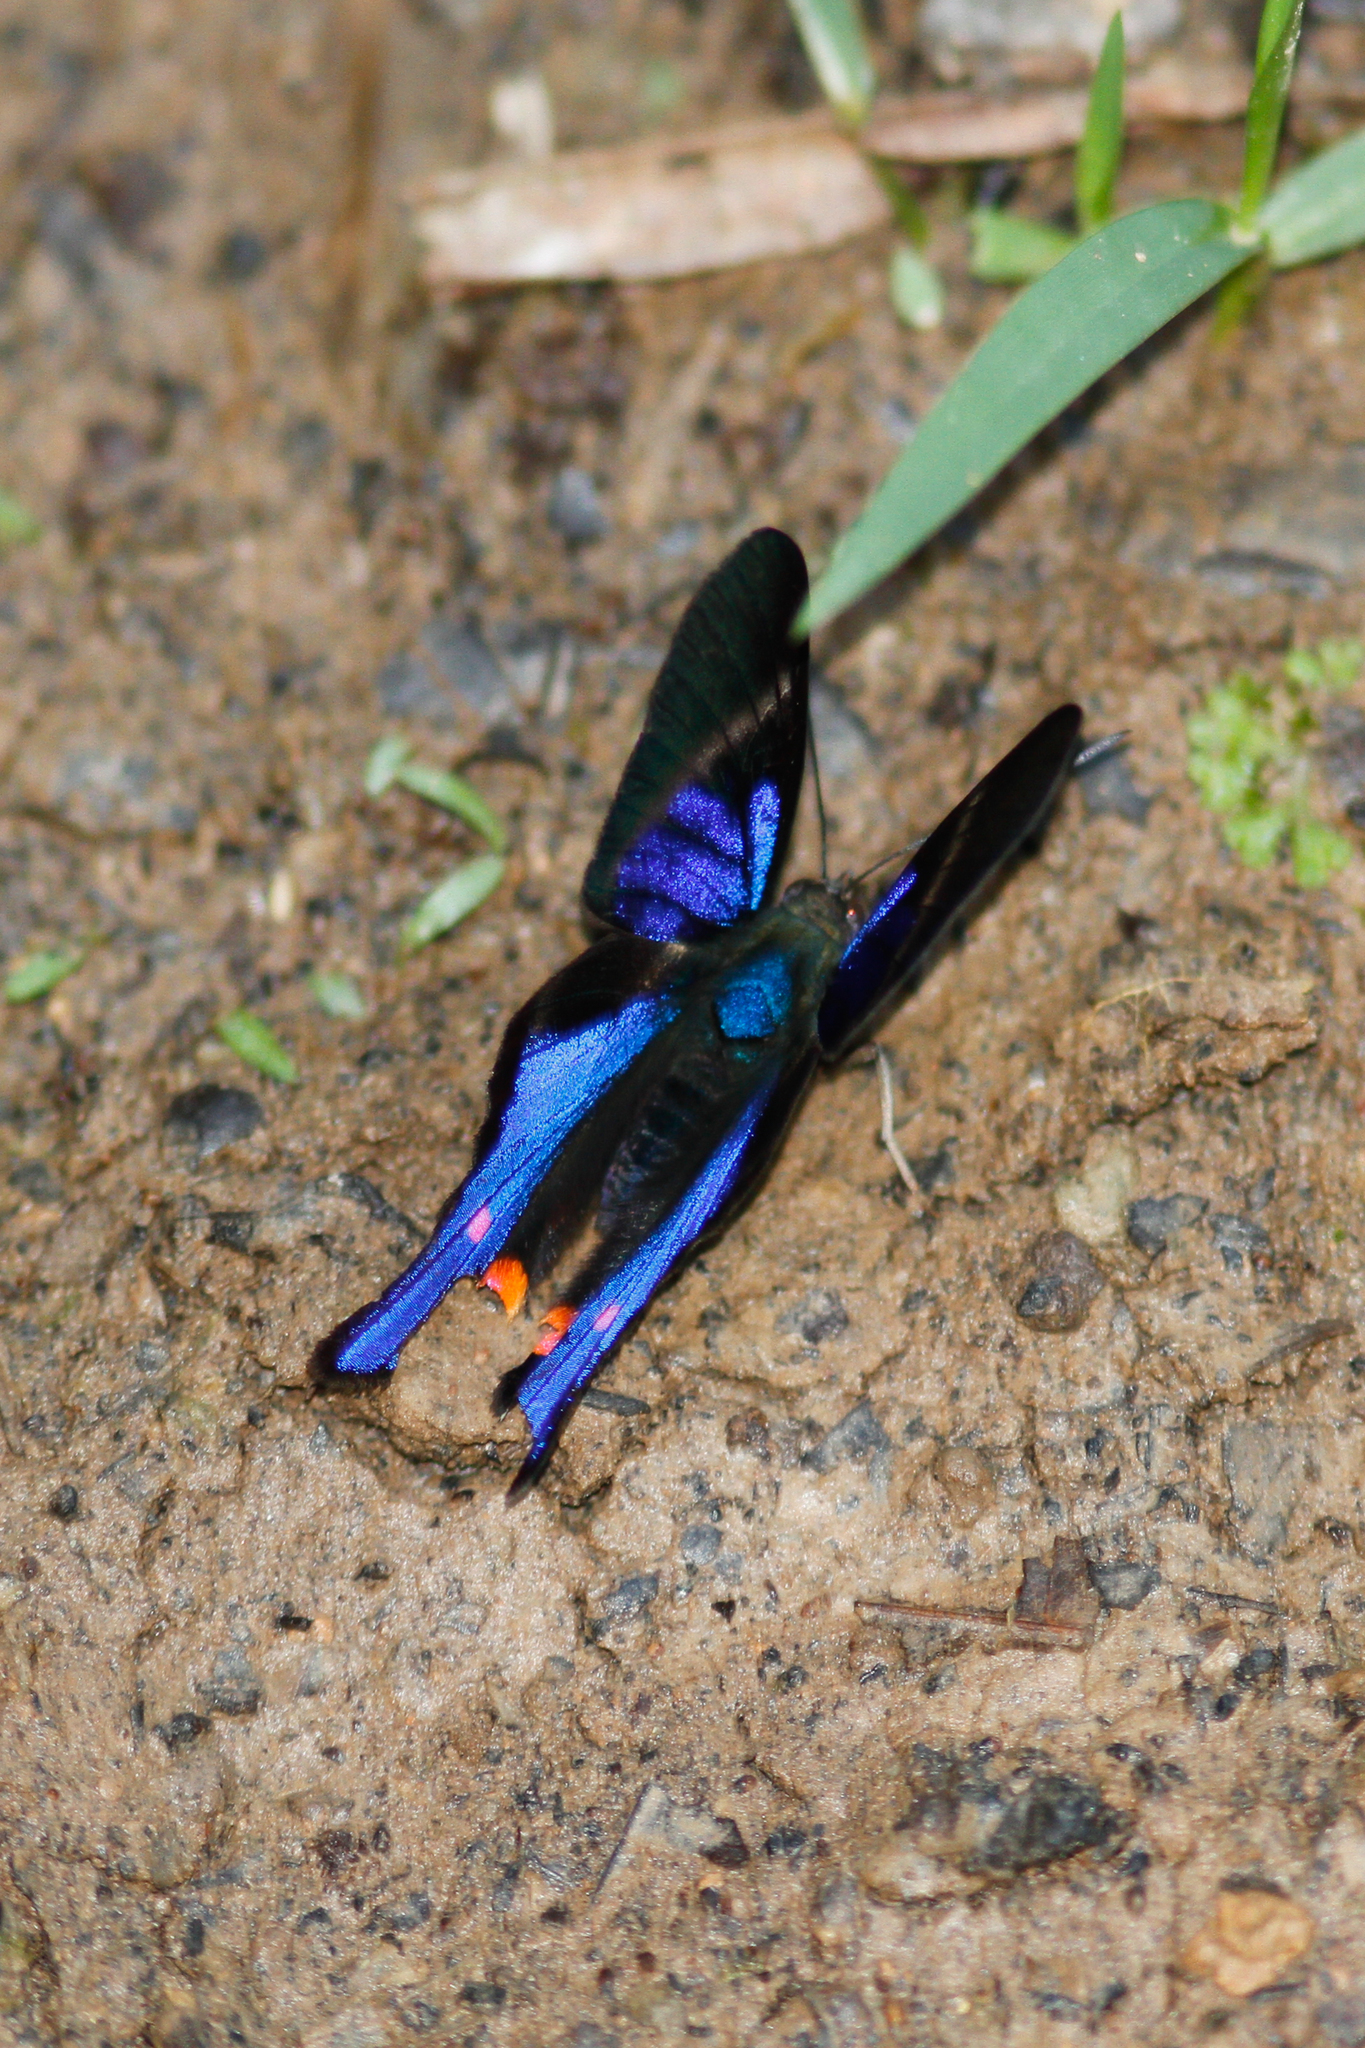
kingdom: Animalia
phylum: Arthropoda
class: Insecta
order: Lepidoptera
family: Riodinidae
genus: Rhetus
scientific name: Rhetus periander
